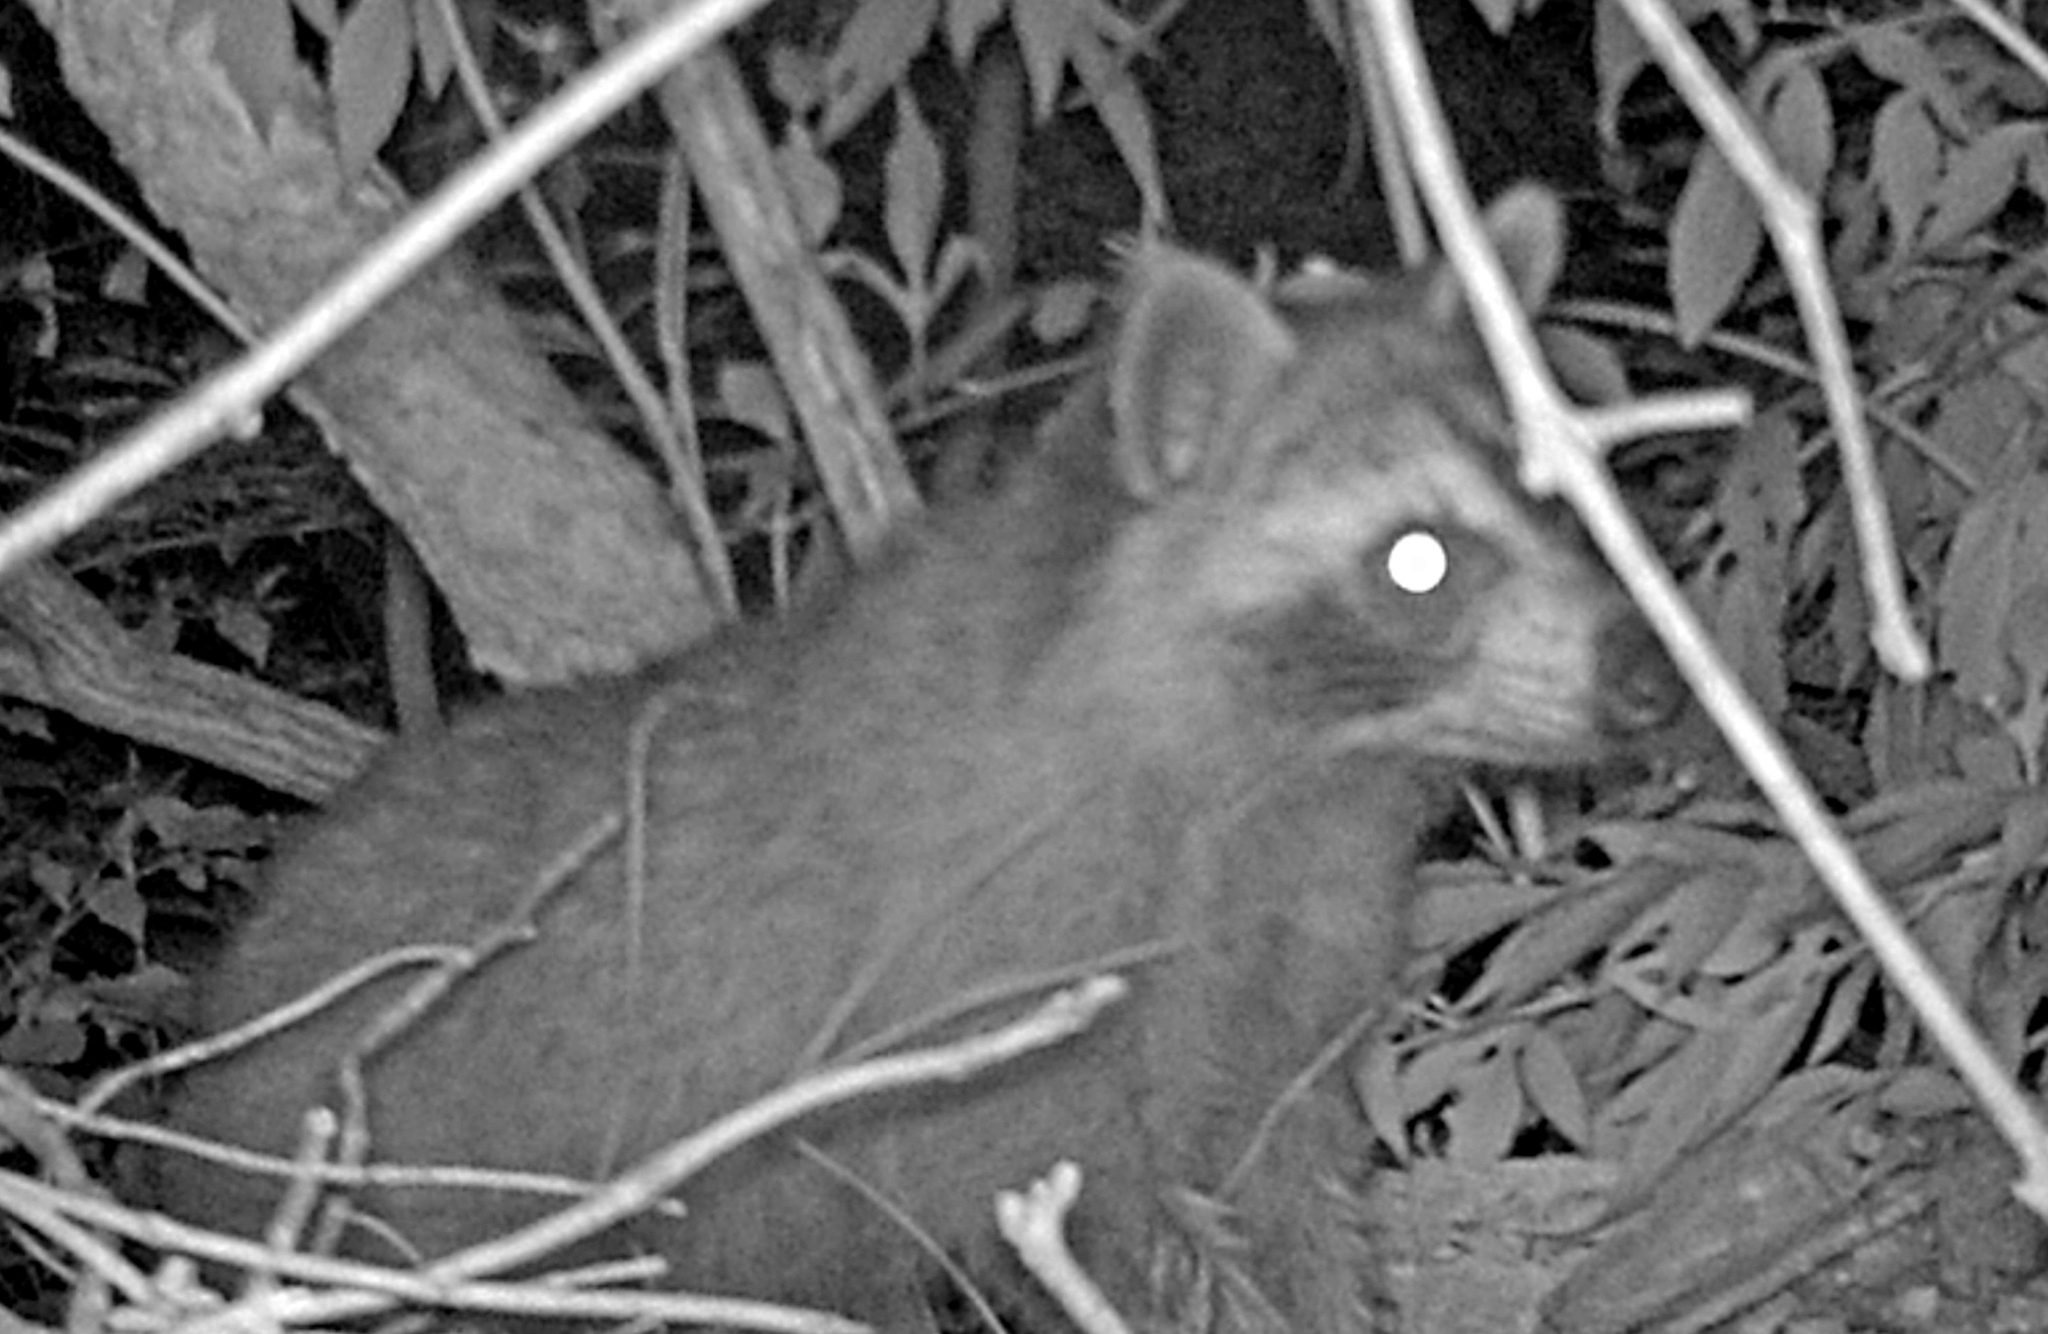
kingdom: Animalia
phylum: Chordata
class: Mammalia
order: Carnivora
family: Procyonidae
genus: Procyon
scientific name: Procyon lotor
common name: Raccoon
